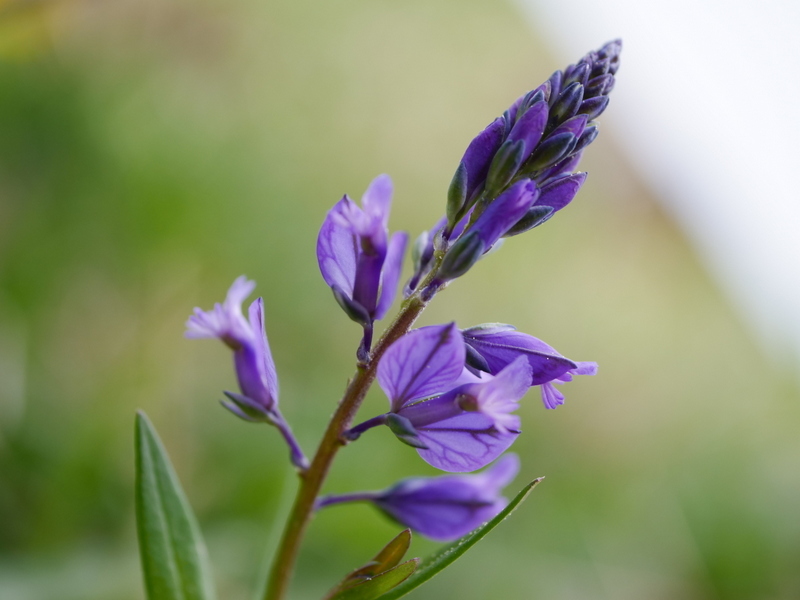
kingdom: Plantae
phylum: Tracheophyta
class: Magnoliopsida
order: Fabales
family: Polygalaceae
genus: Polygala
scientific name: Polygala alpestris
